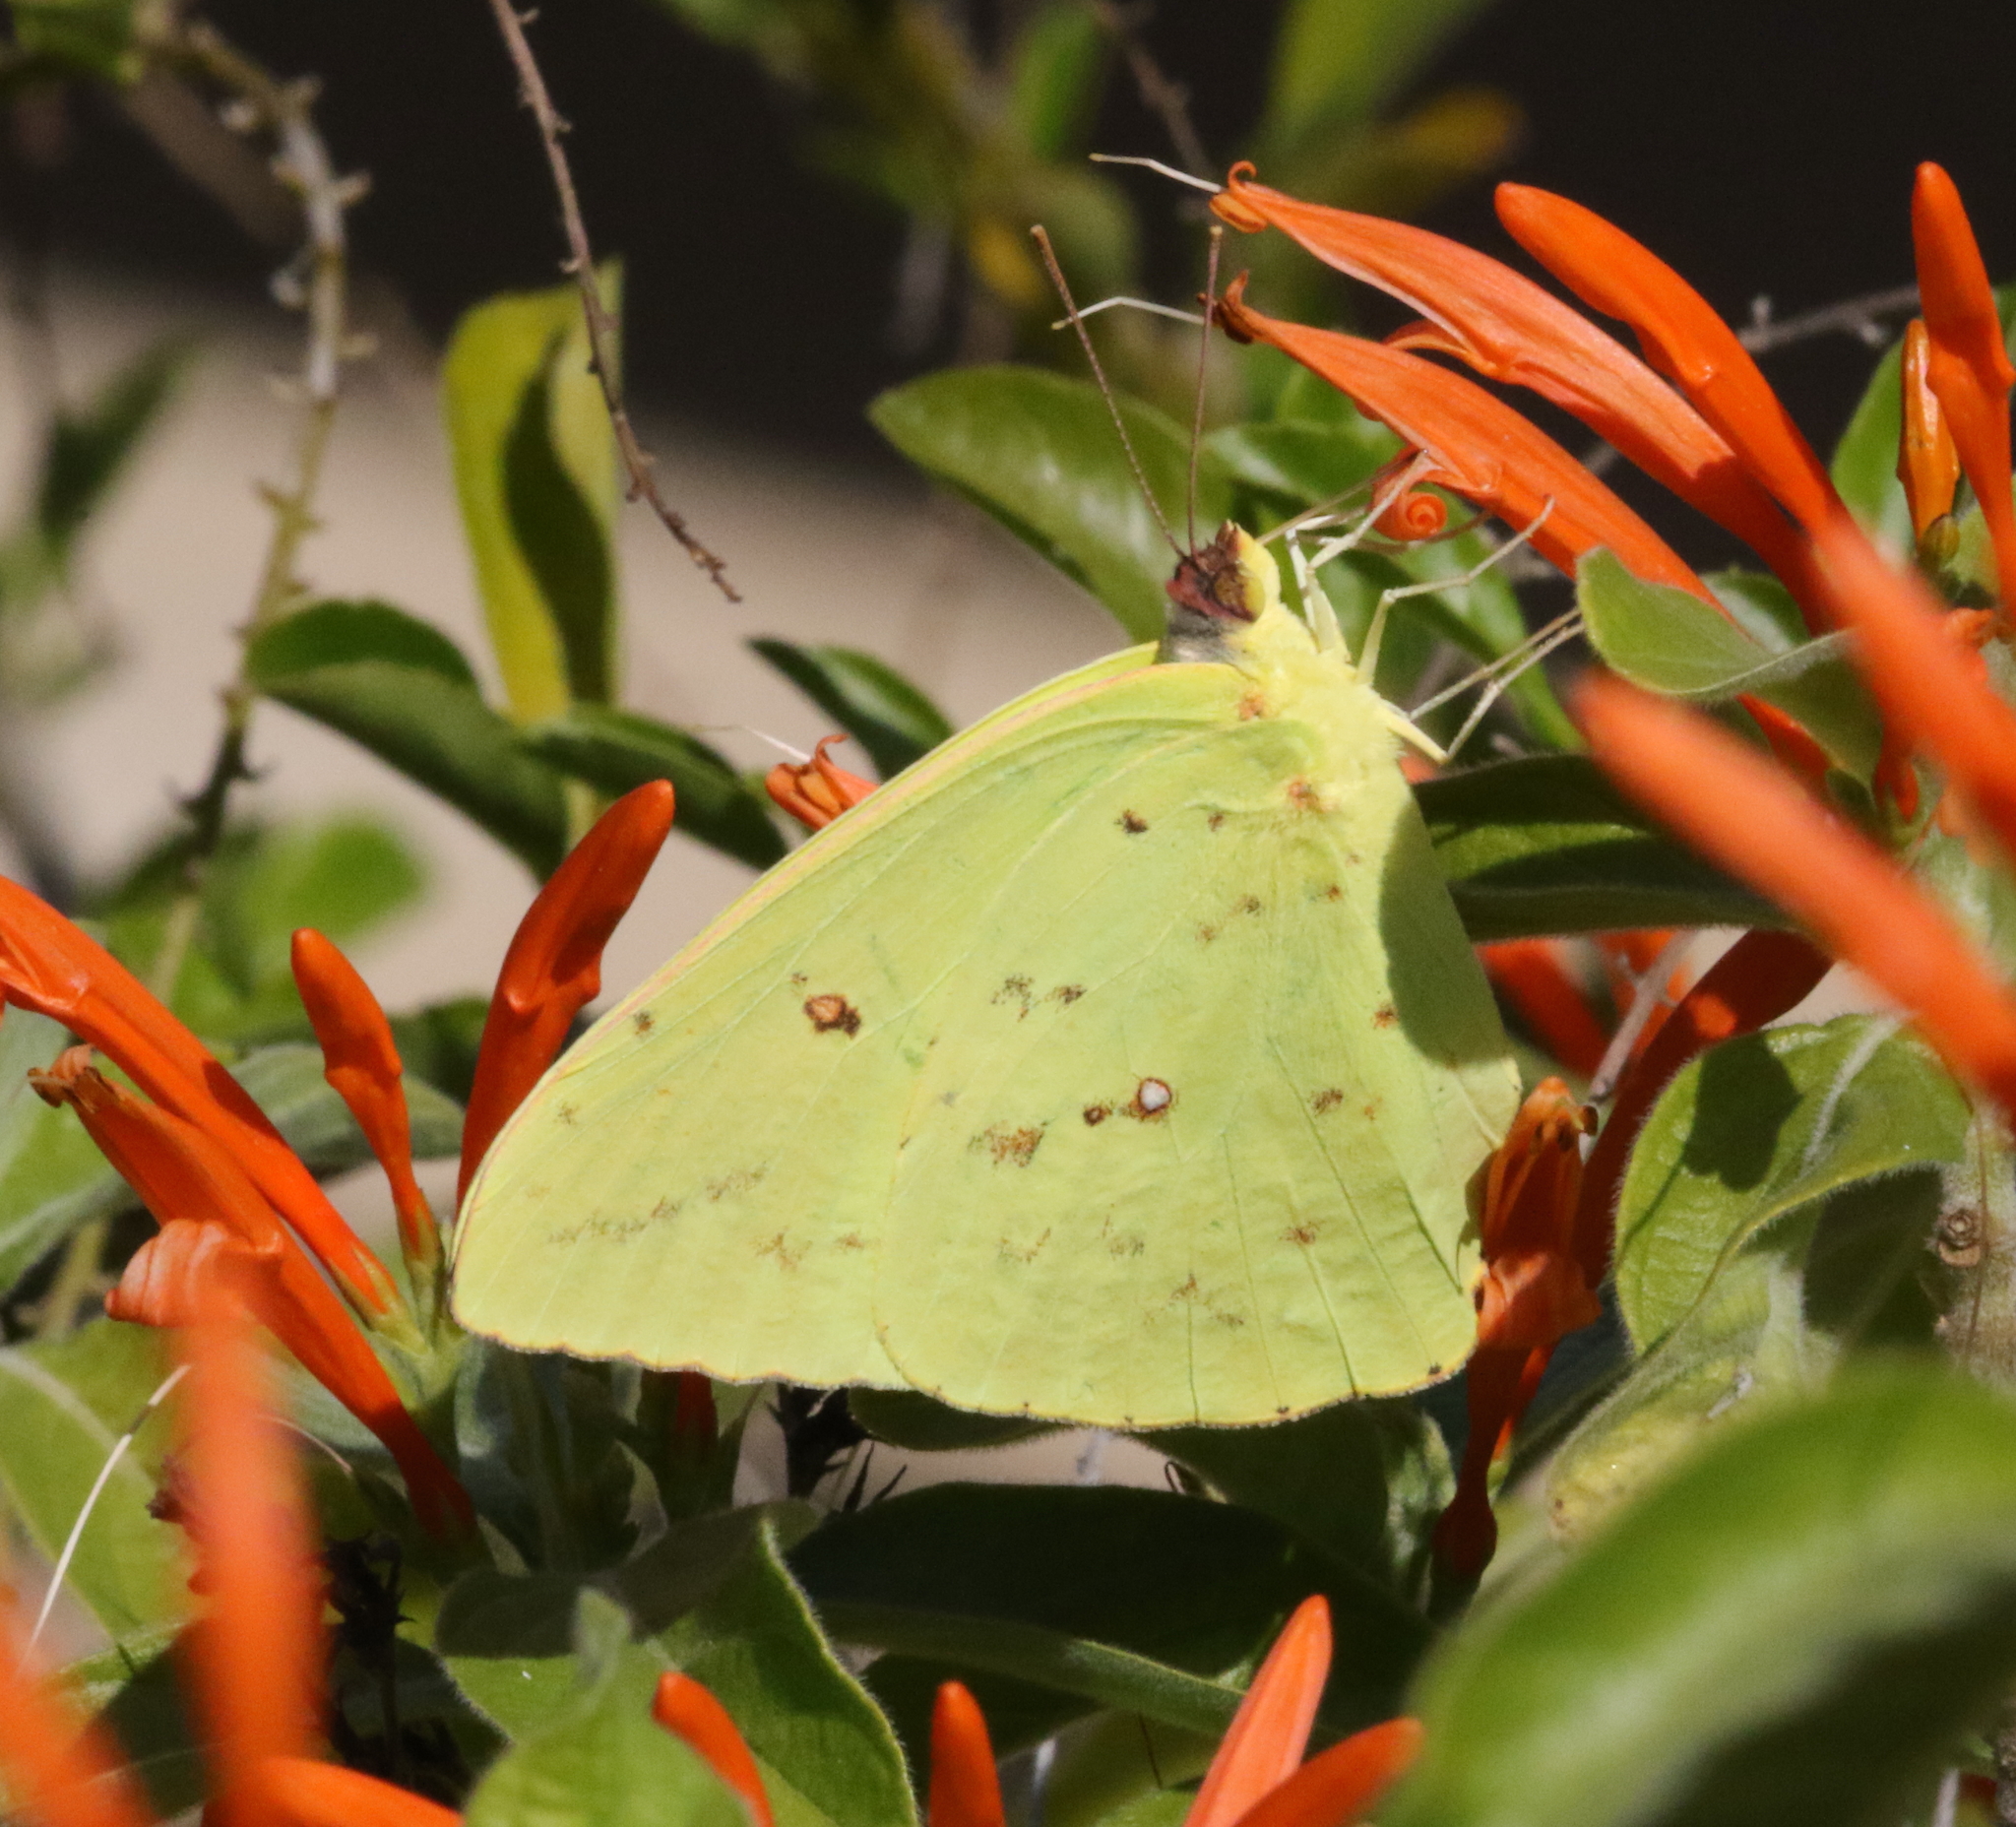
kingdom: Animalia
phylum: Arthropoda
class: Insecta
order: Lepidoptera
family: Pieridae
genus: Phoebis
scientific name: Phoebis sennae
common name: Cloudless sulphur
